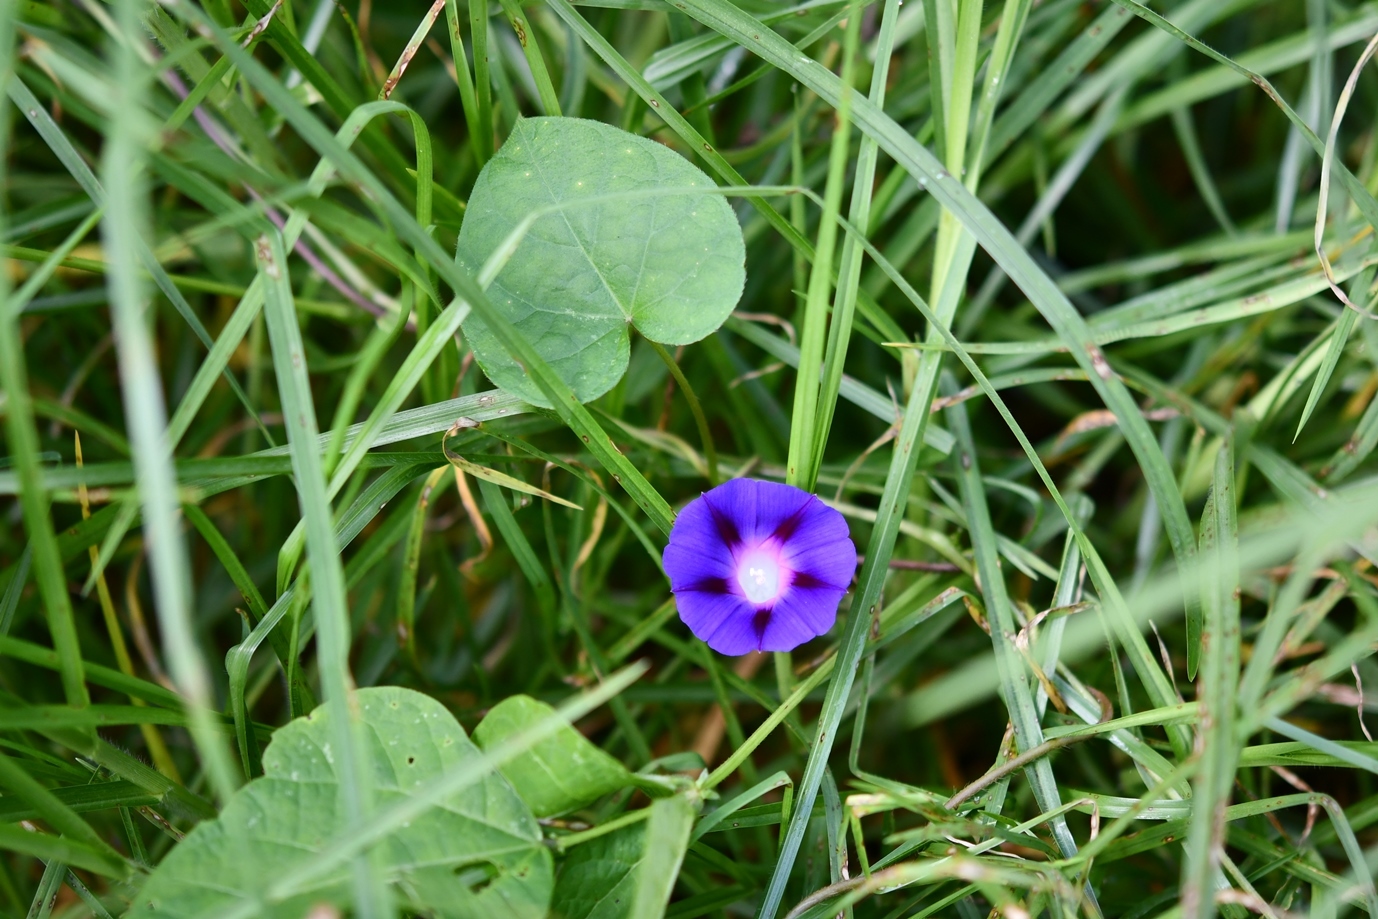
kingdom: Plantae
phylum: Tracheophyta
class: Magnoliopsida
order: Solanales
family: Convolvulaceae
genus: Ipomoea
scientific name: Ipomoea purpurea
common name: Common morning-glory
